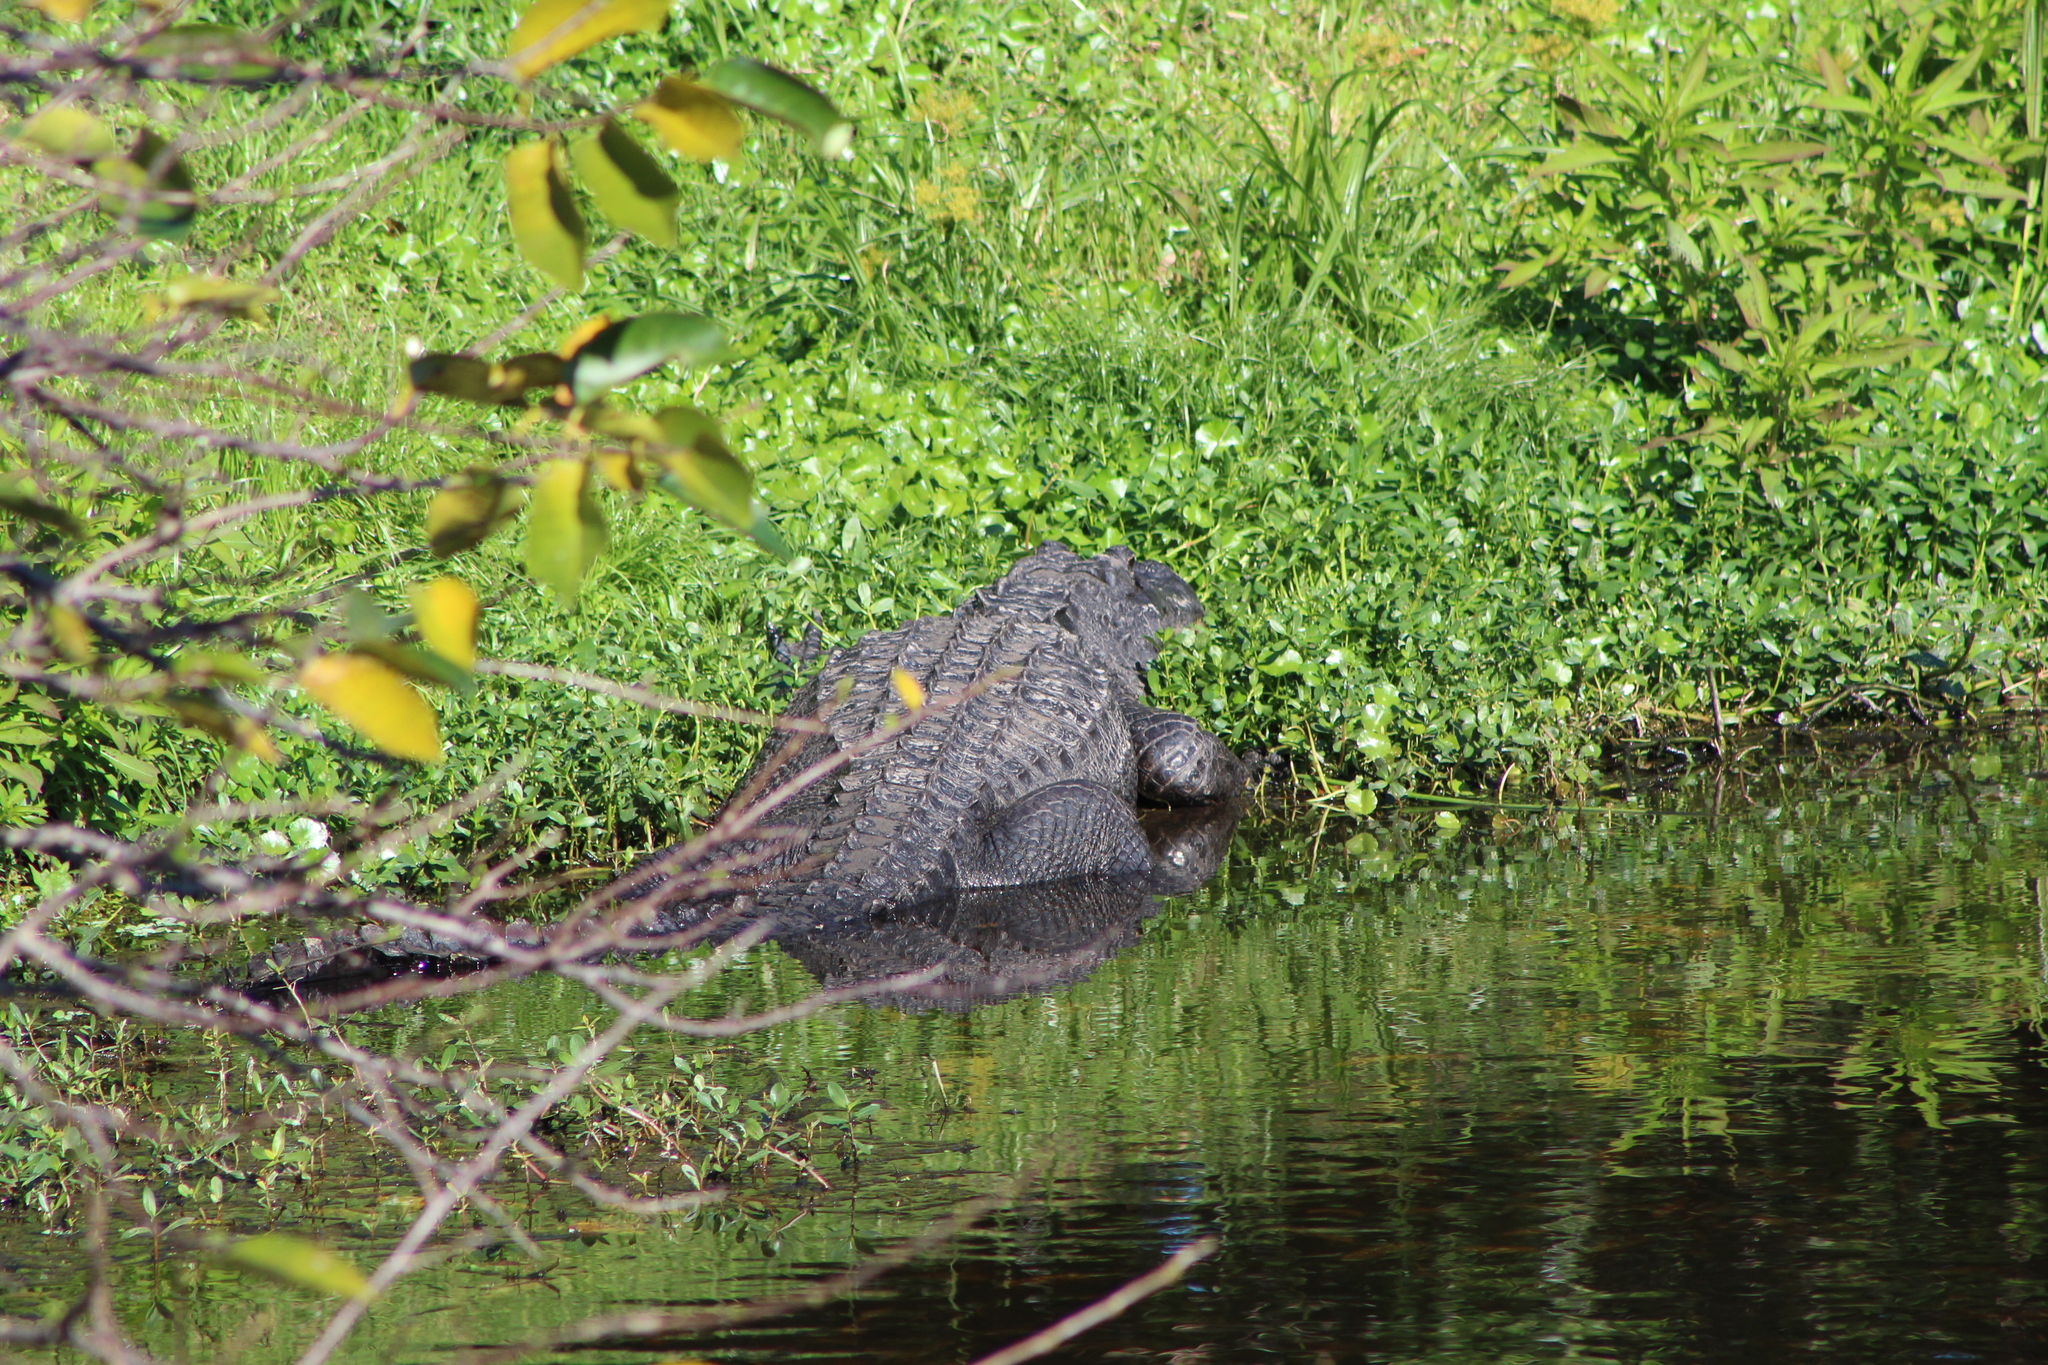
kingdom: Animalia
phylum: Chordata
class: Crocodylia
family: Alligatoridae
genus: Alligator
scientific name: Alligator mississippiensis
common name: American alligator
